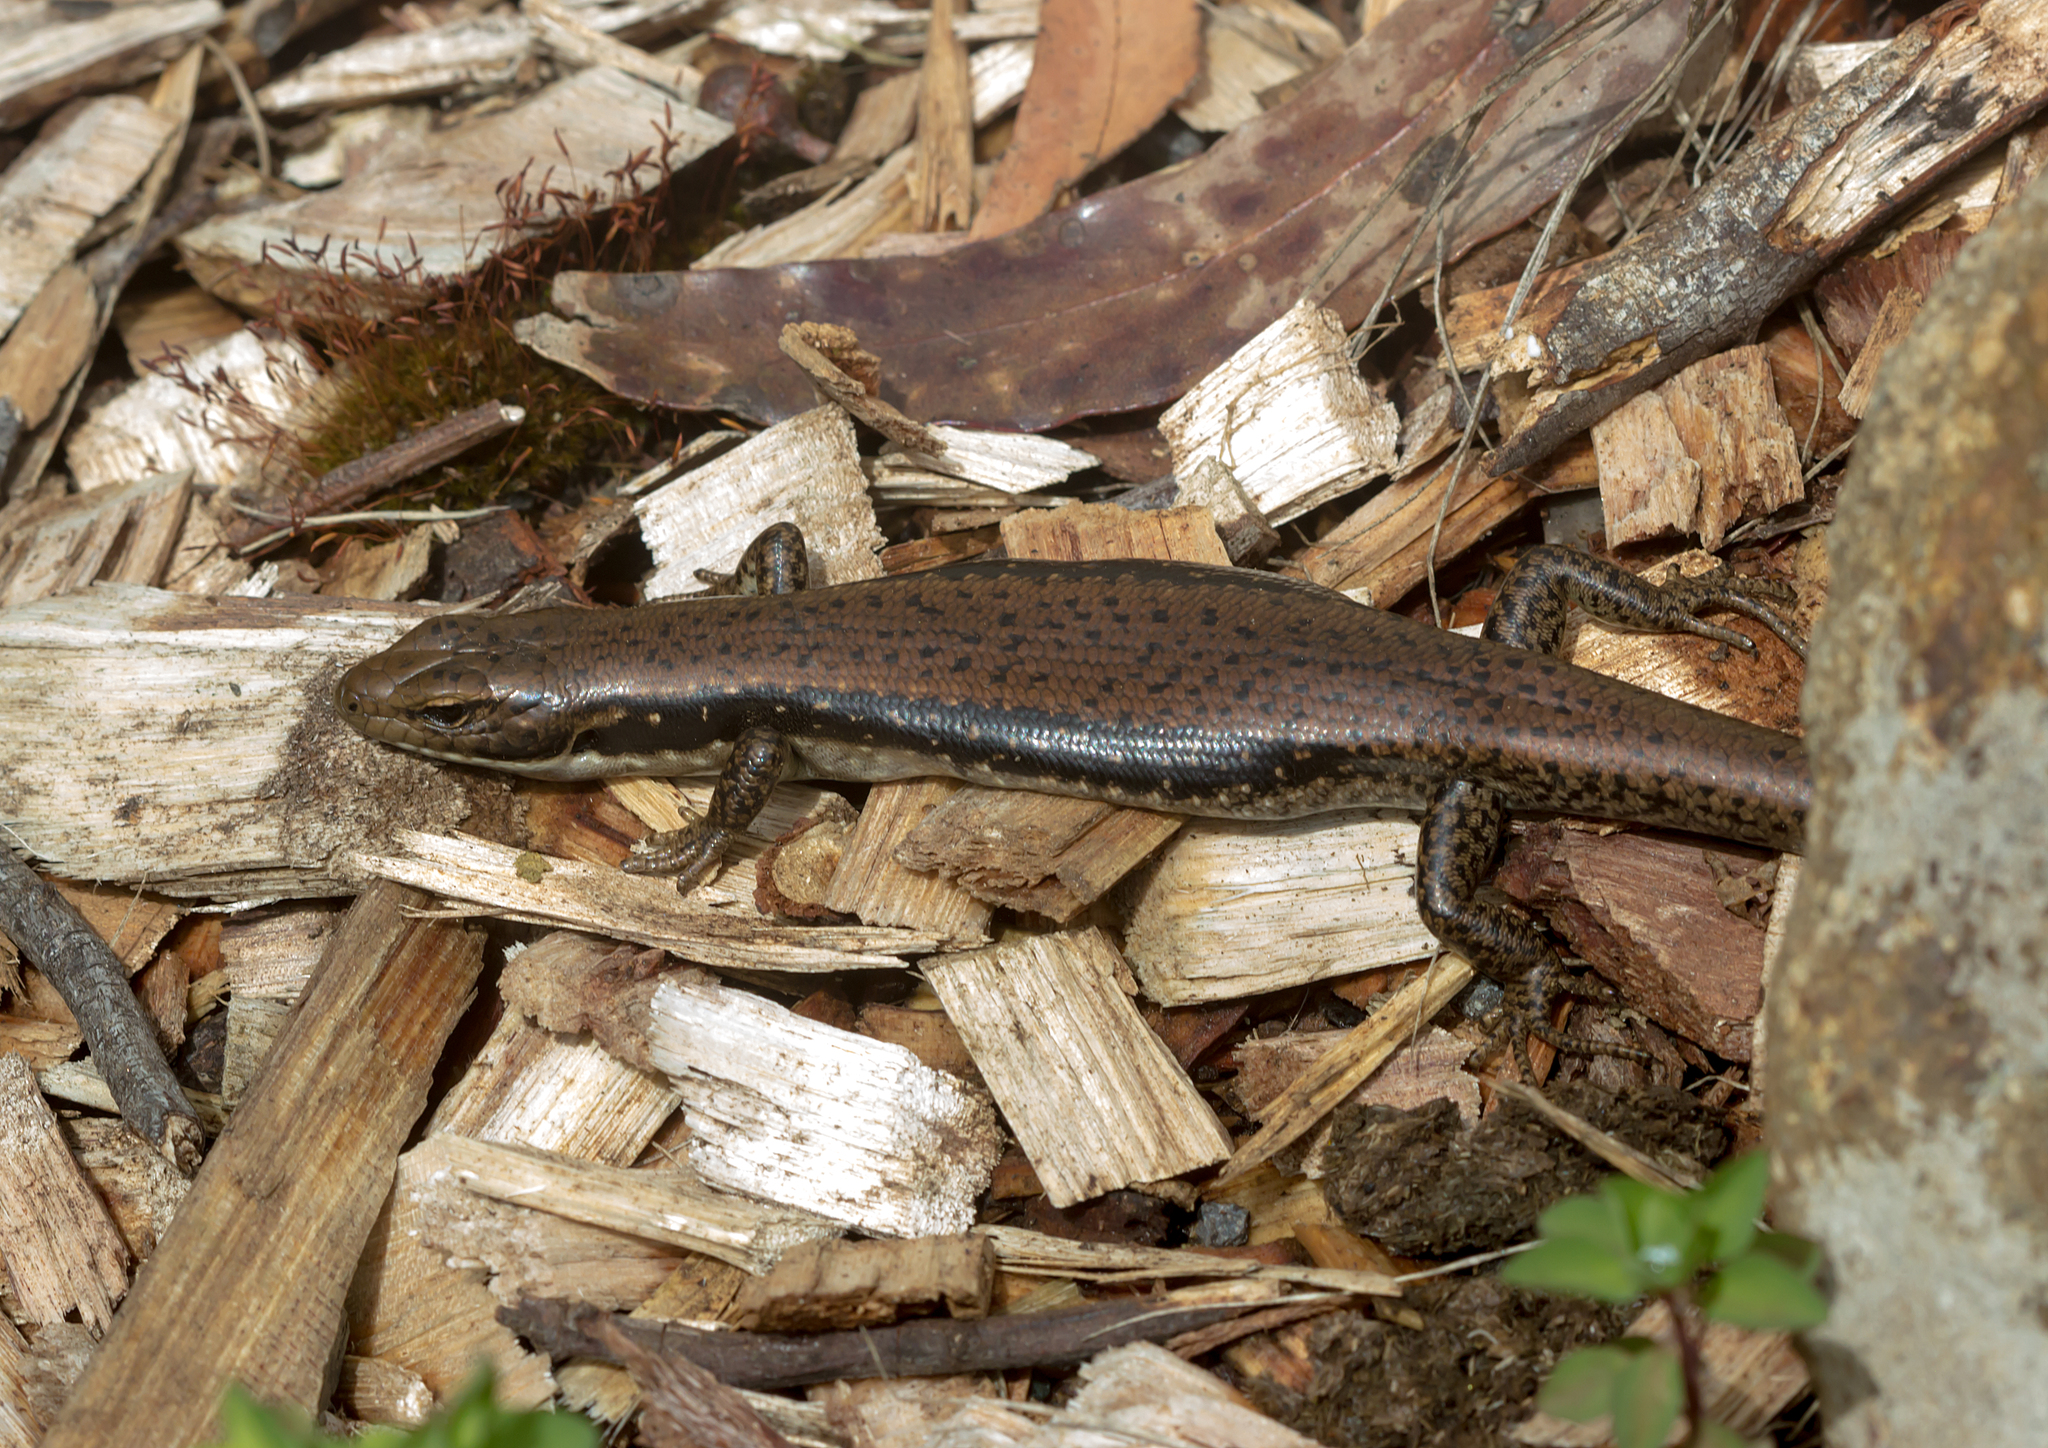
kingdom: Animalia
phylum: Chordata
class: Squamata
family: Scincidae
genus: Eulamprus
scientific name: Eulamprus tympanum
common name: Cool-temperate water-skink
